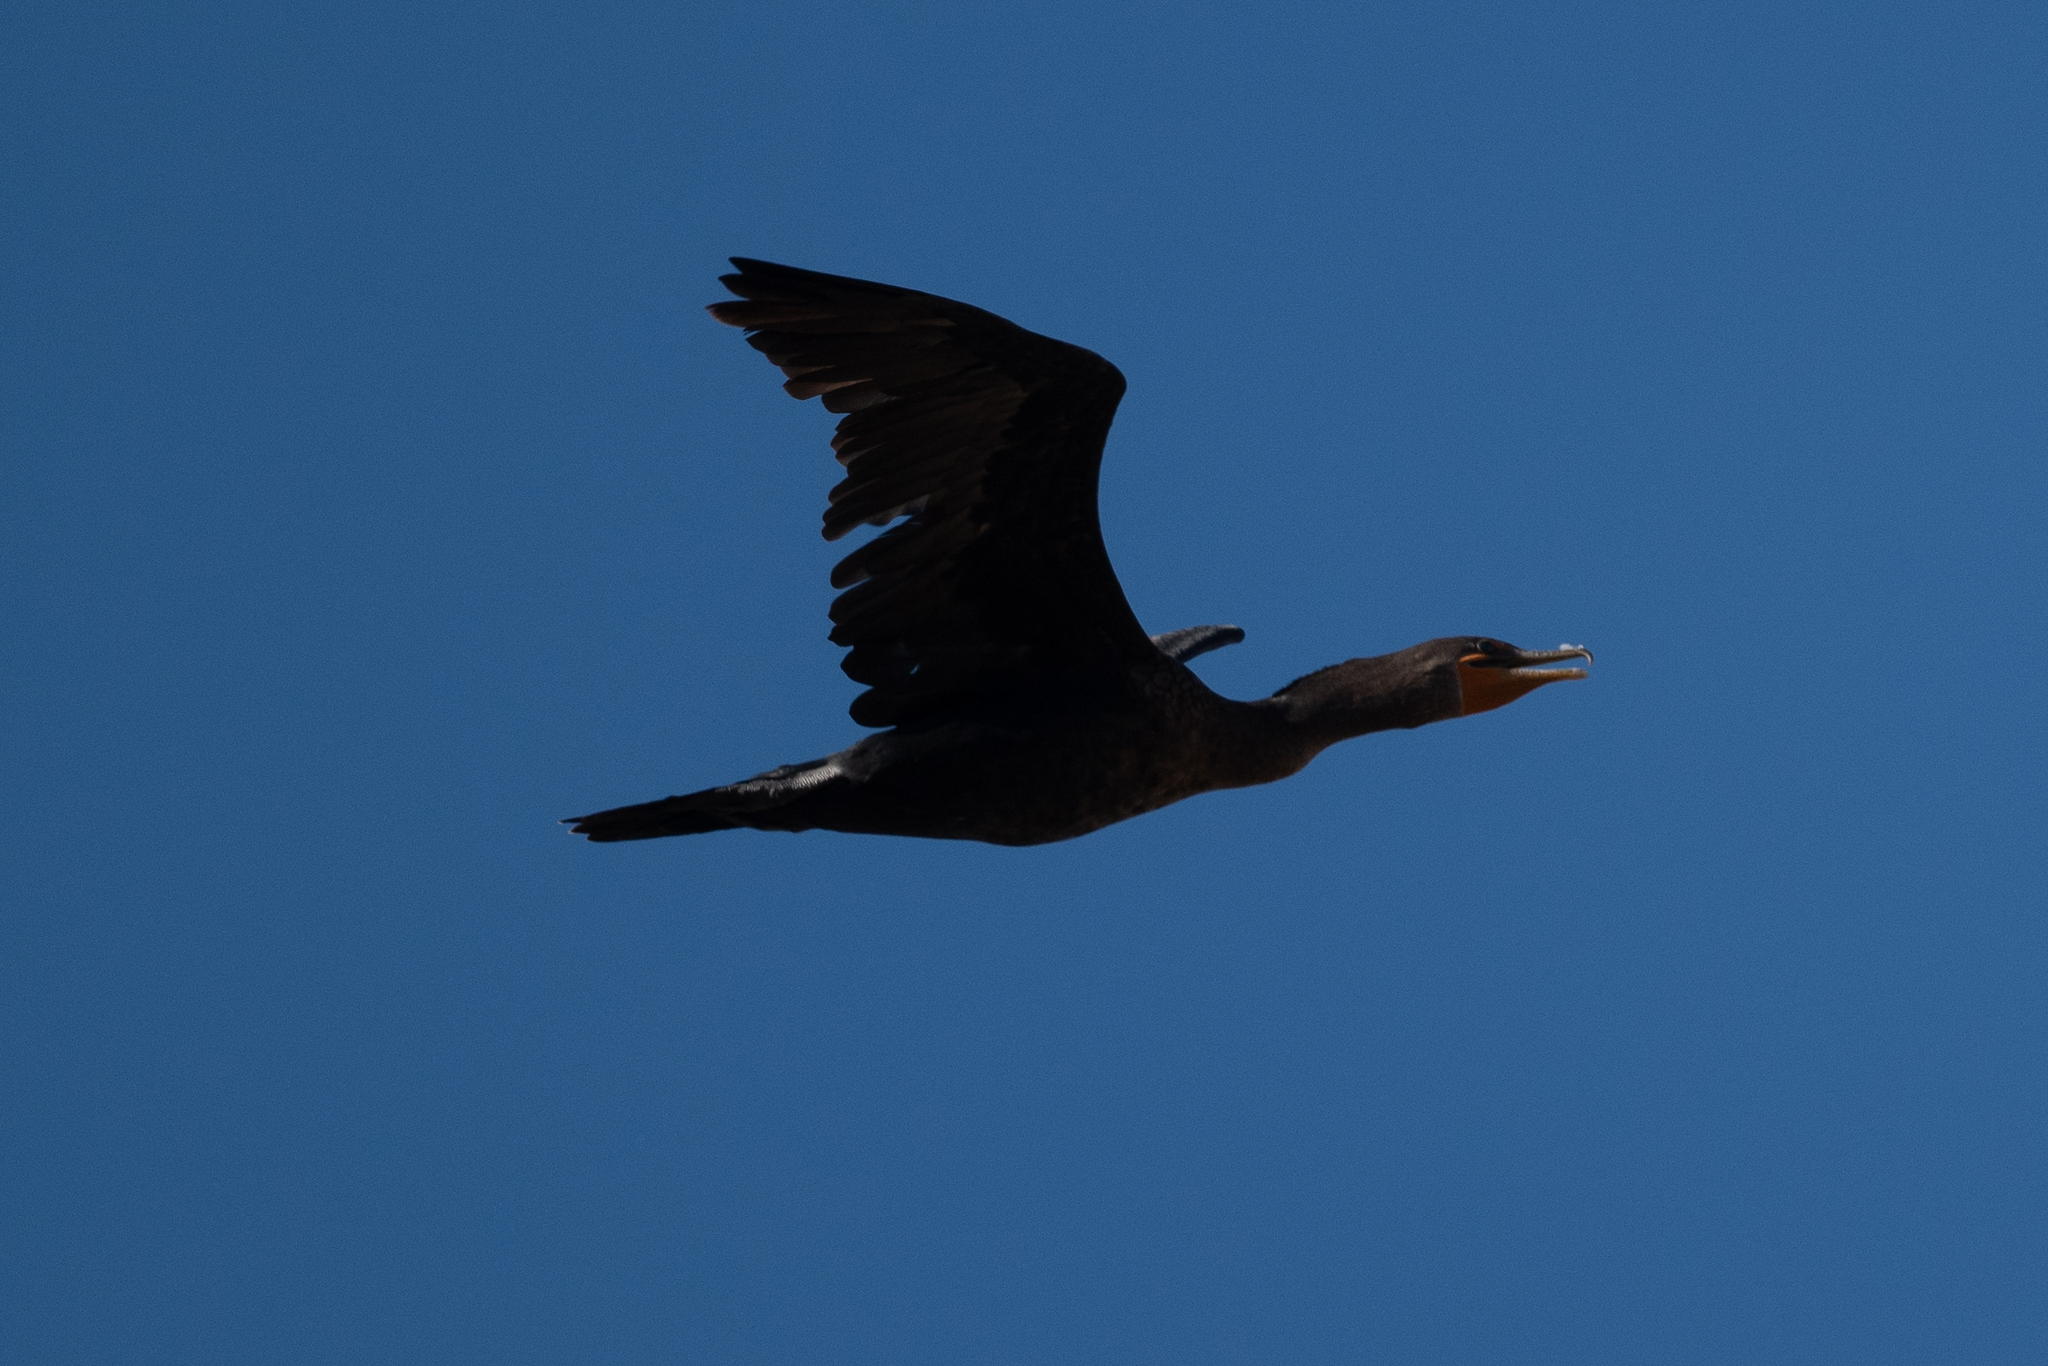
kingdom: Animalia
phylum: Chordata
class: Aves
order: Suliformes
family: Phalacrocoracidae
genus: Phalacrocorax
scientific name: Phalacrocorax auritus
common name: Double-crested cormorant
